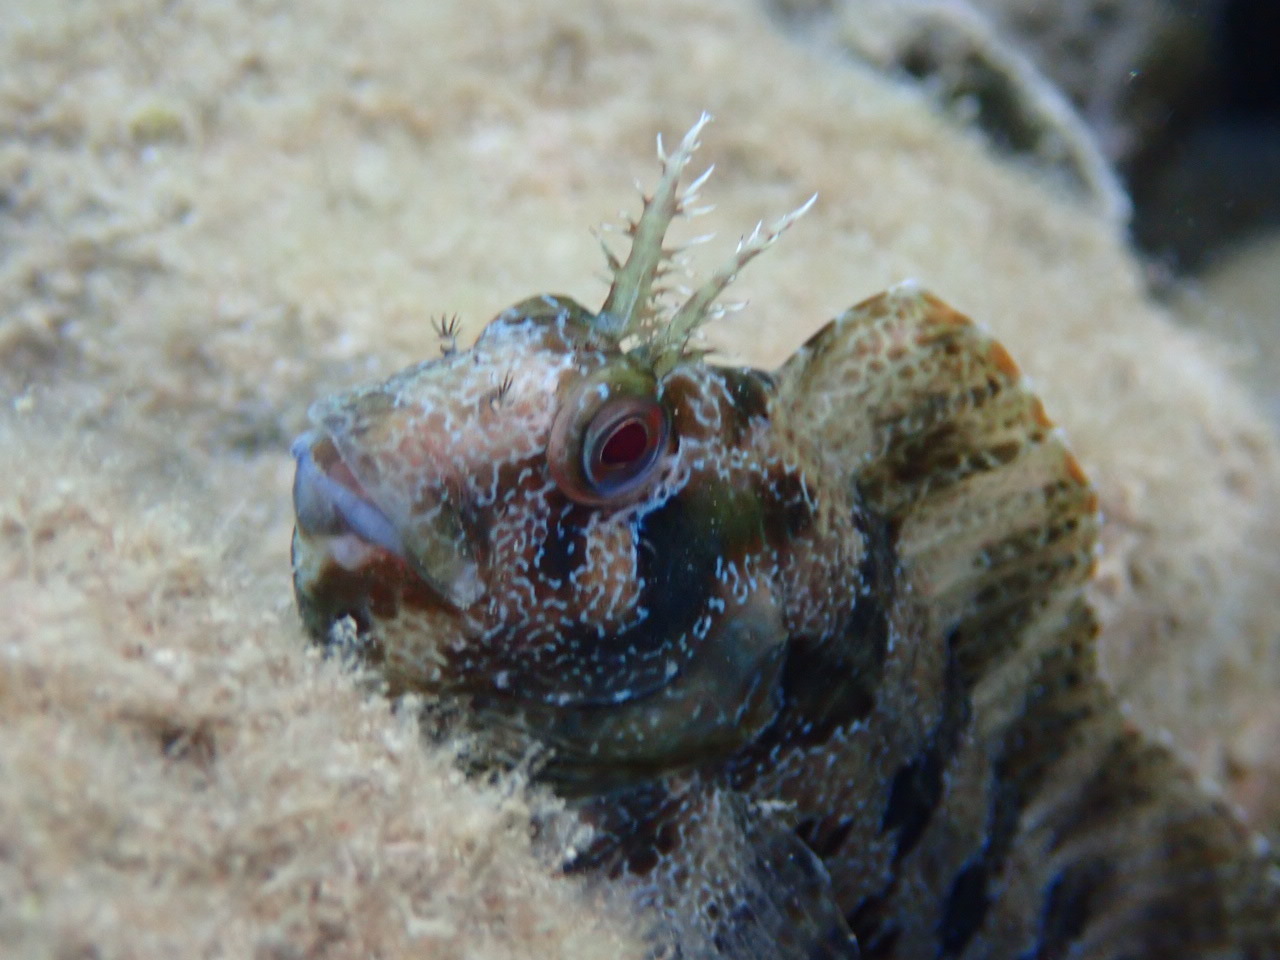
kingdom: Animalia
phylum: Chordata
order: Perciformes
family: Blenniidae
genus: Parablennius
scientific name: Parablennius gattorugine
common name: Tompot blenny
